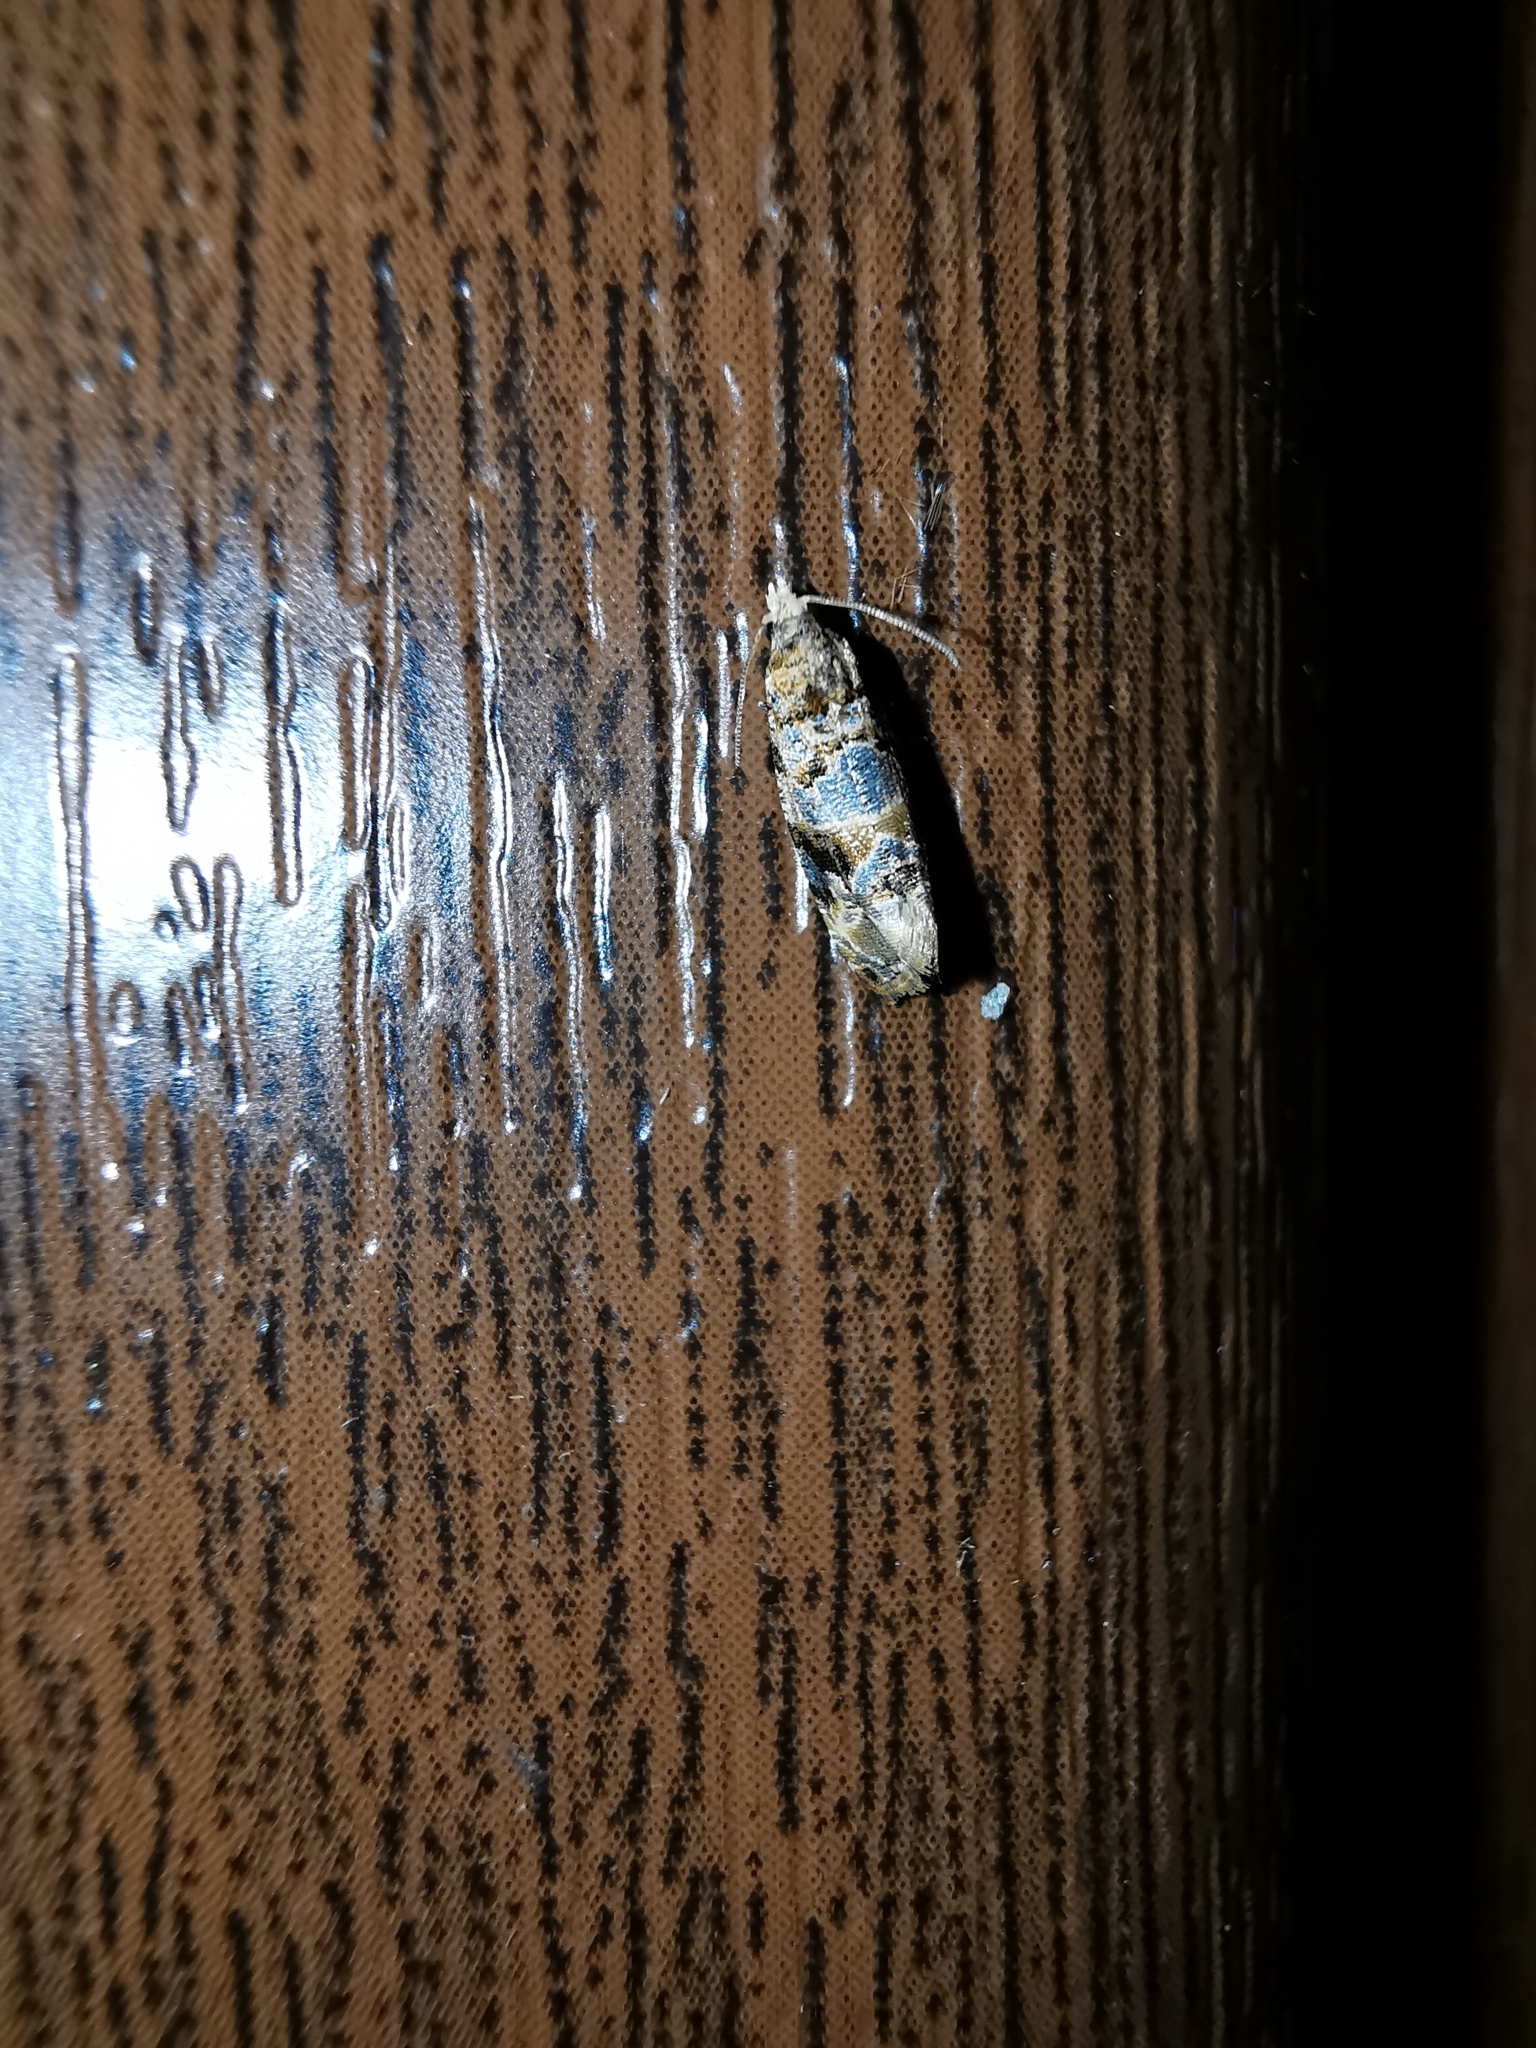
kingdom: Animalia
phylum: Arthropoda
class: Insecta
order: Lepidoptera
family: Tortricidae
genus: Lobesia
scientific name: Lobesia botrana
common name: European vine moth
